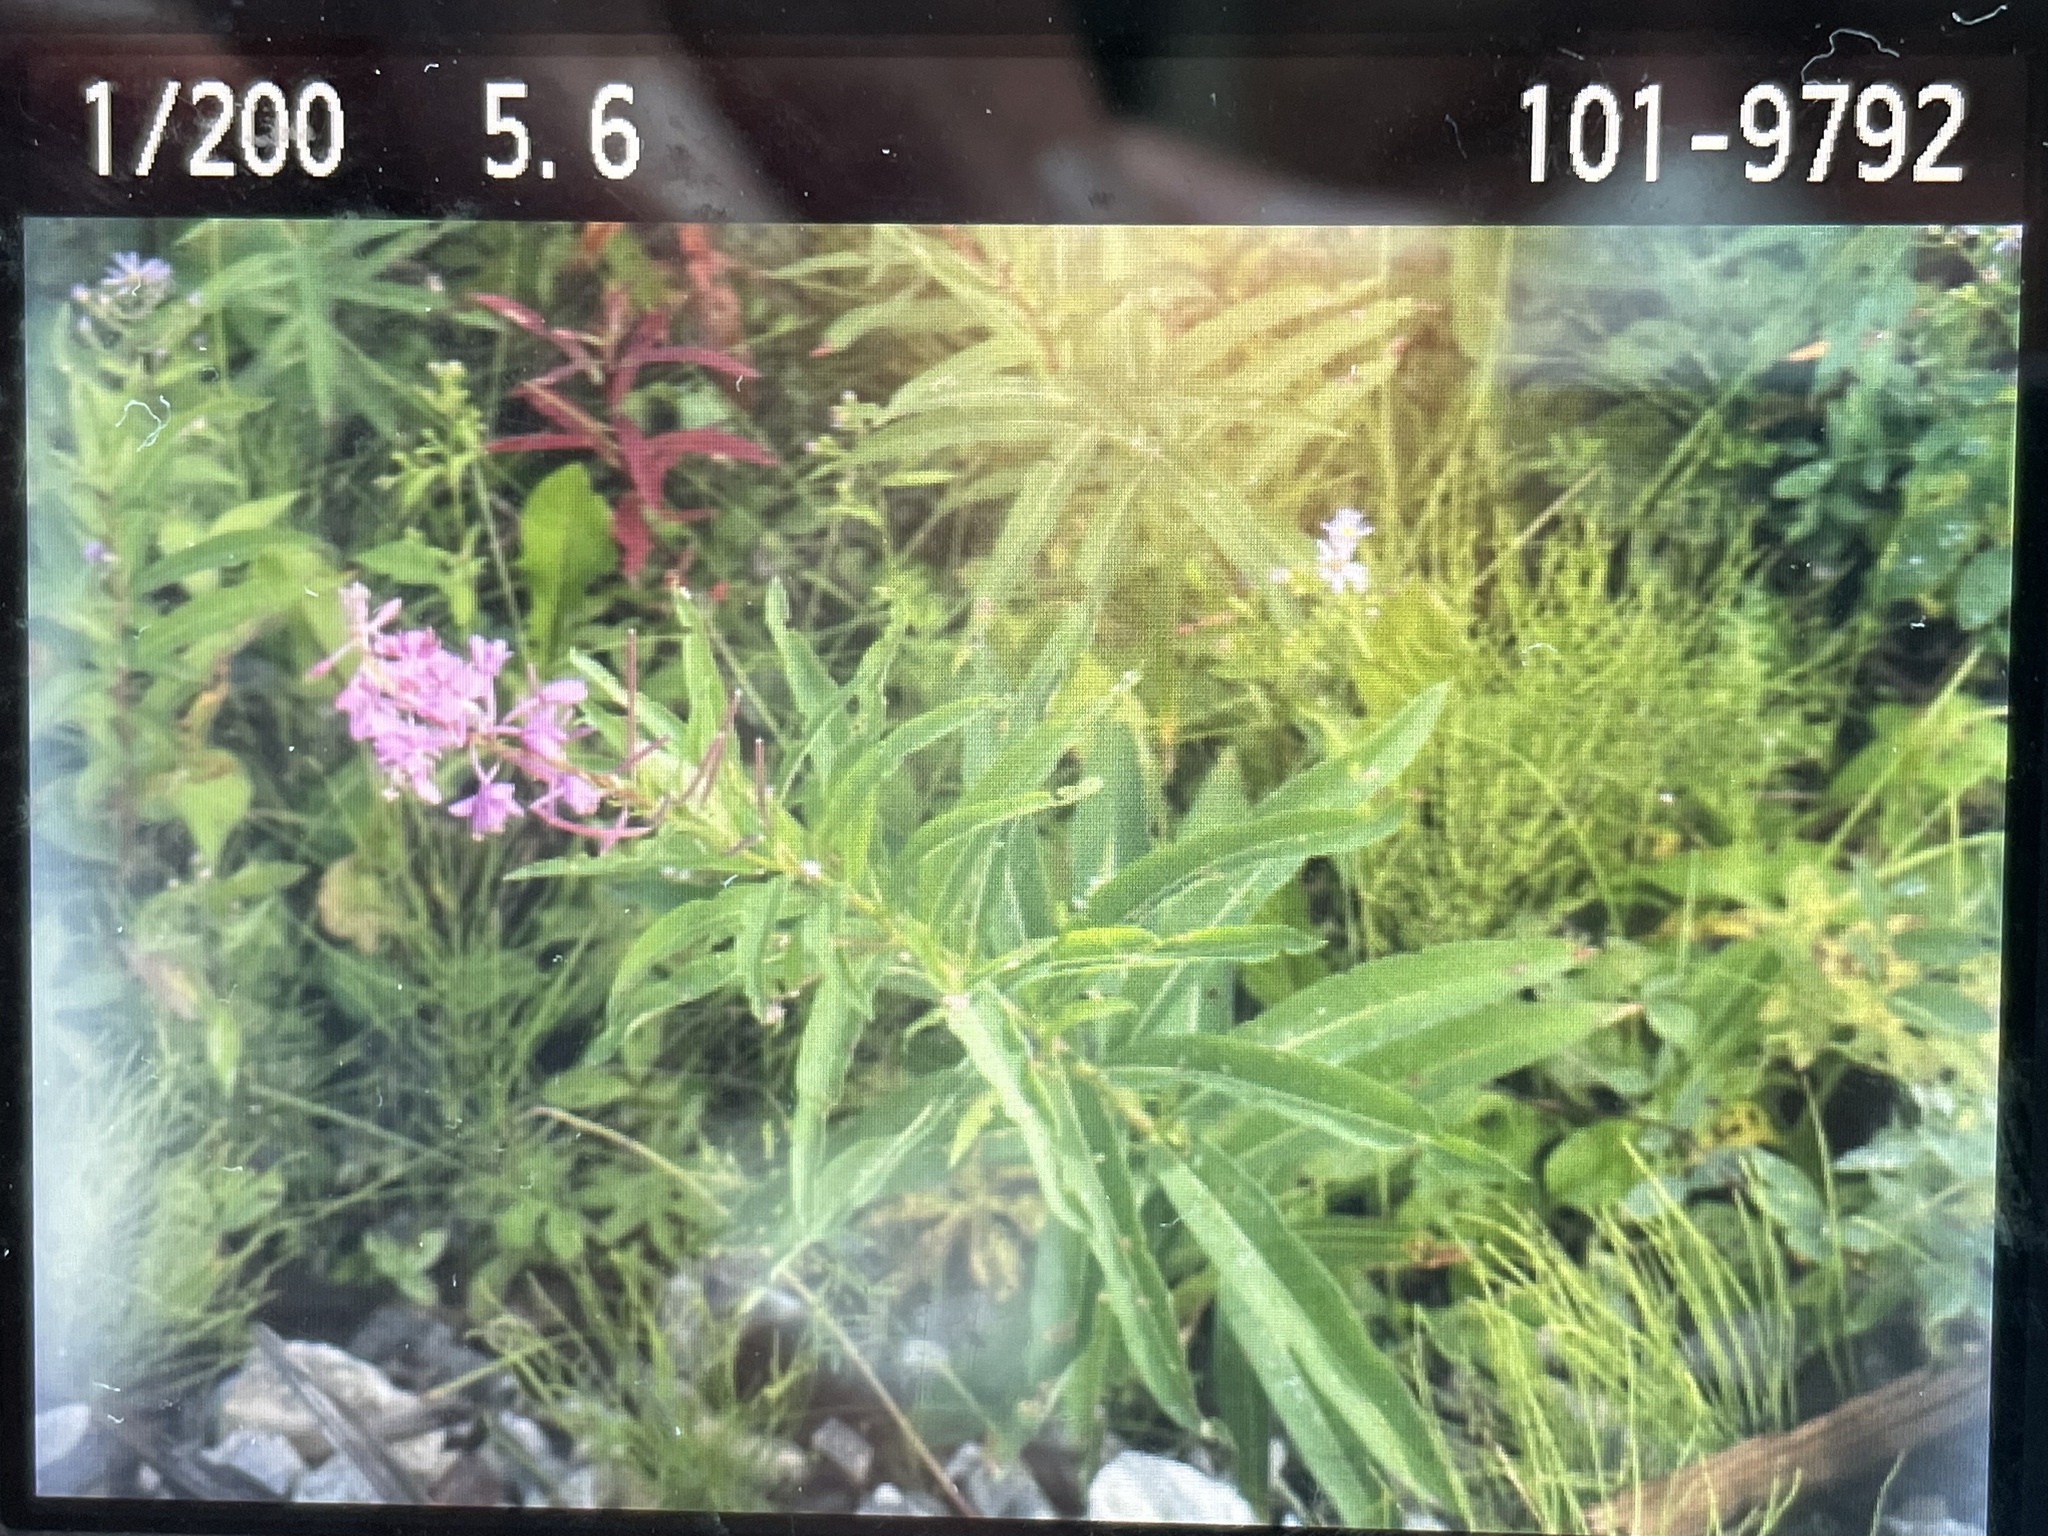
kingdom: Plantae
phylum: Tracheophyta
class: Magnoliopsida
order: Myrtales
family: Onagraceae
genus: Chamaenerion
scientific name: Chamaenerion angustifolium
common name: Fireweed
